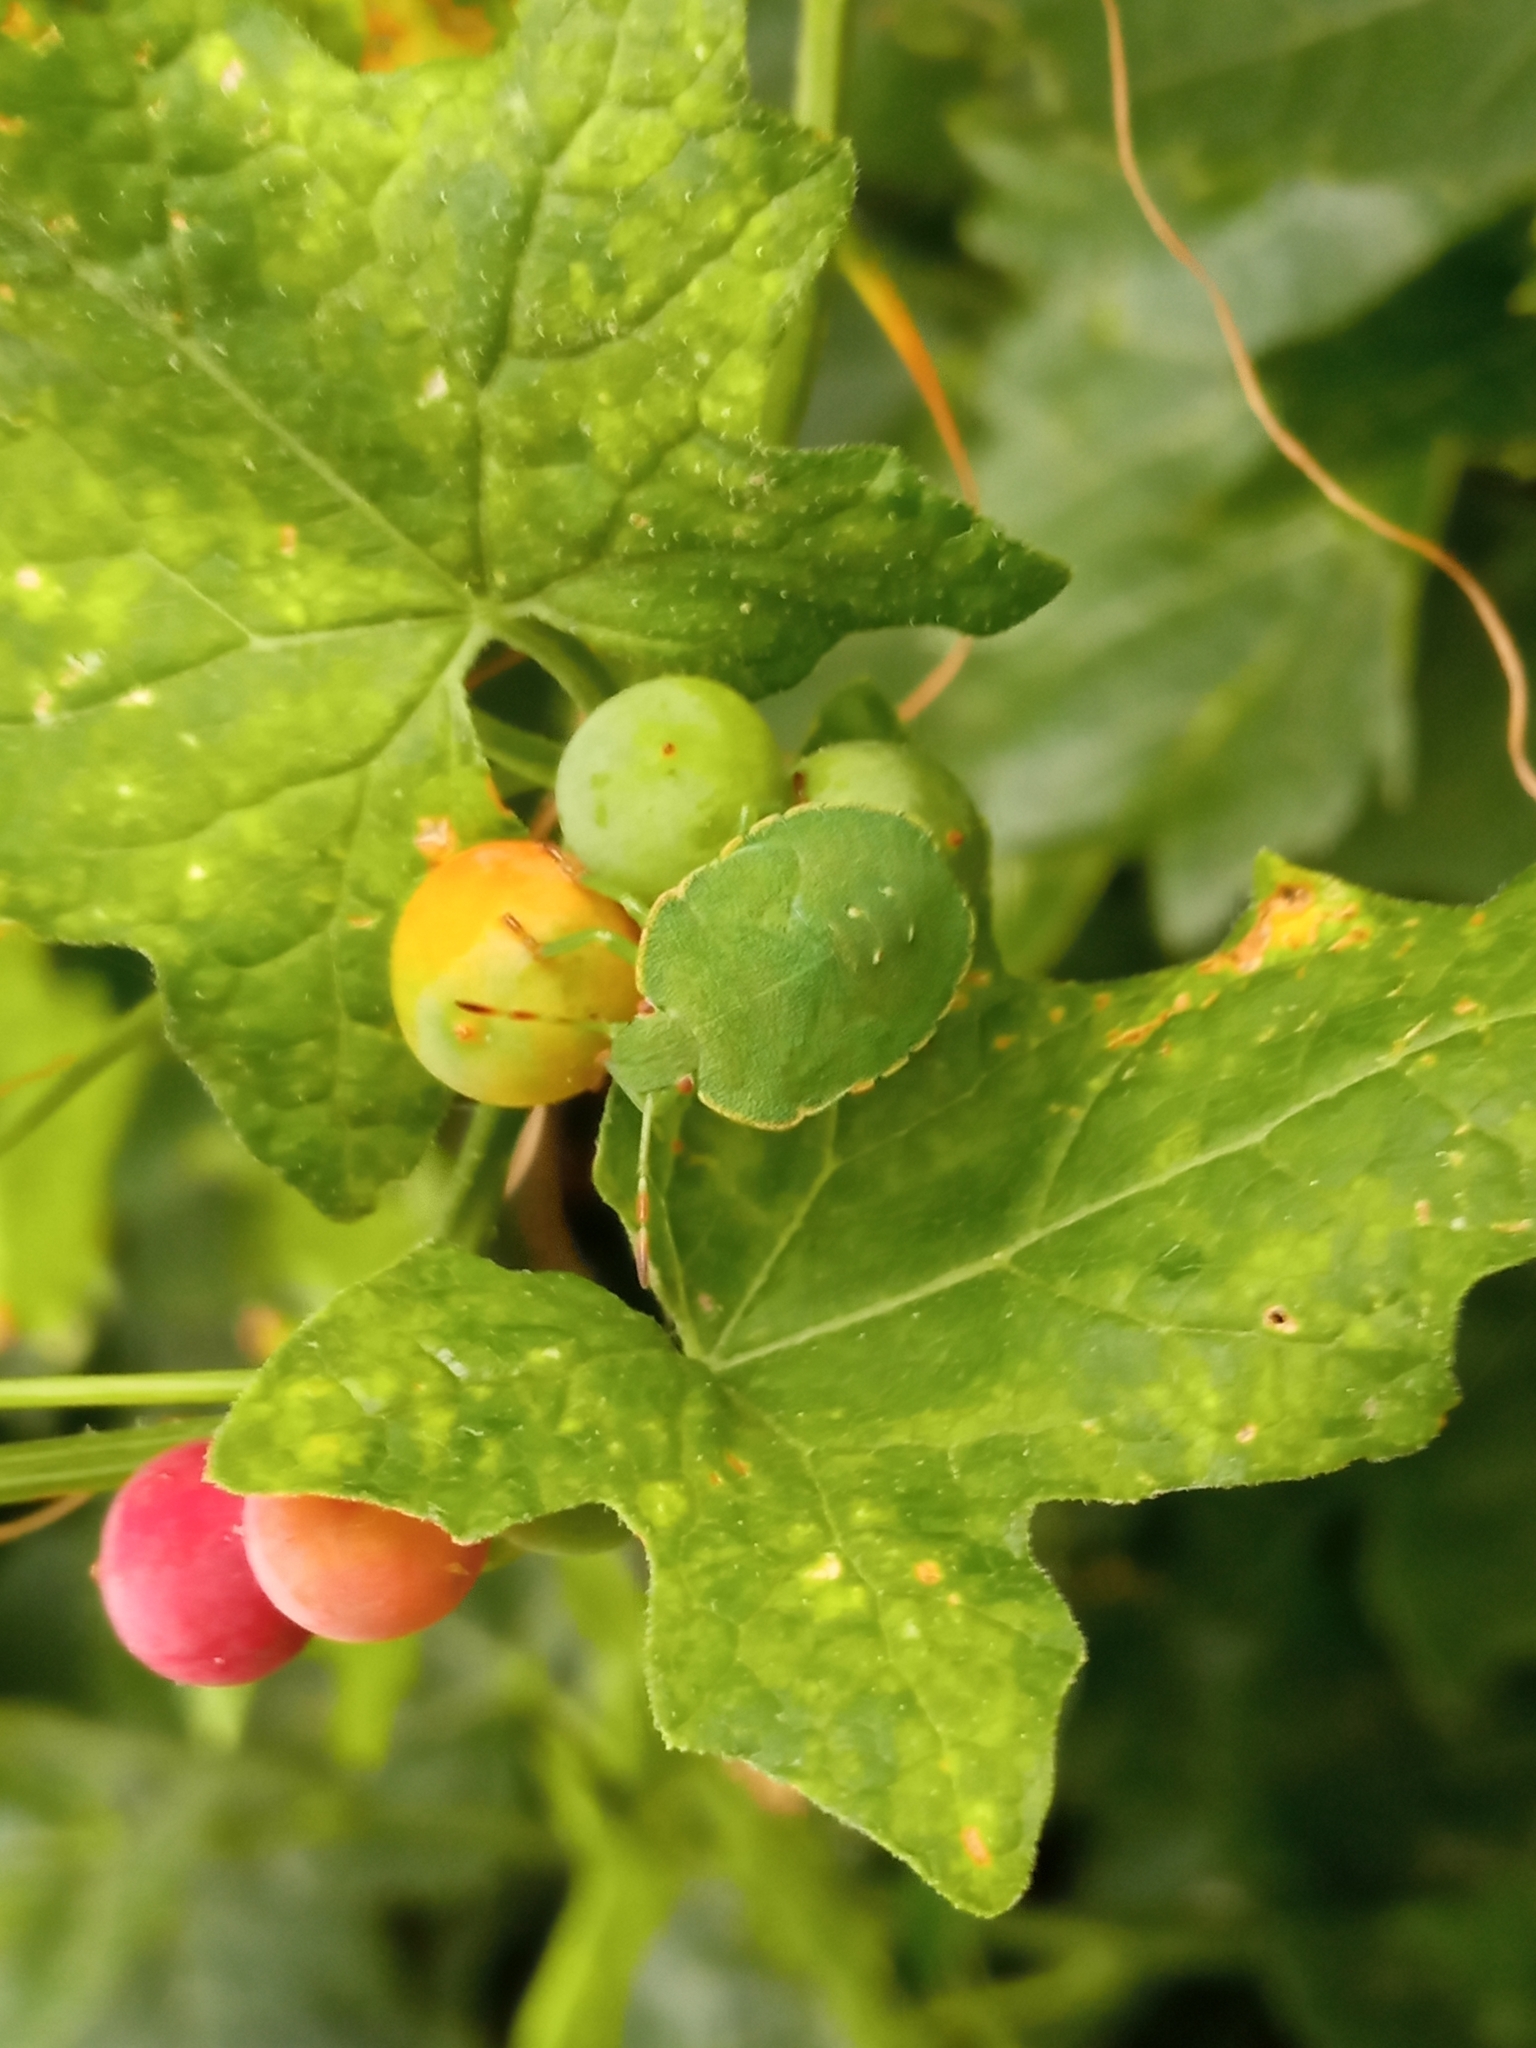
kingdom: Animalia
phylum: Arthropoda
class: Insecta
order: Hemiptera
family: Pentatomidae
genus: Palomena
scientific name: Palomena prasina
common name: Green shieldbug
